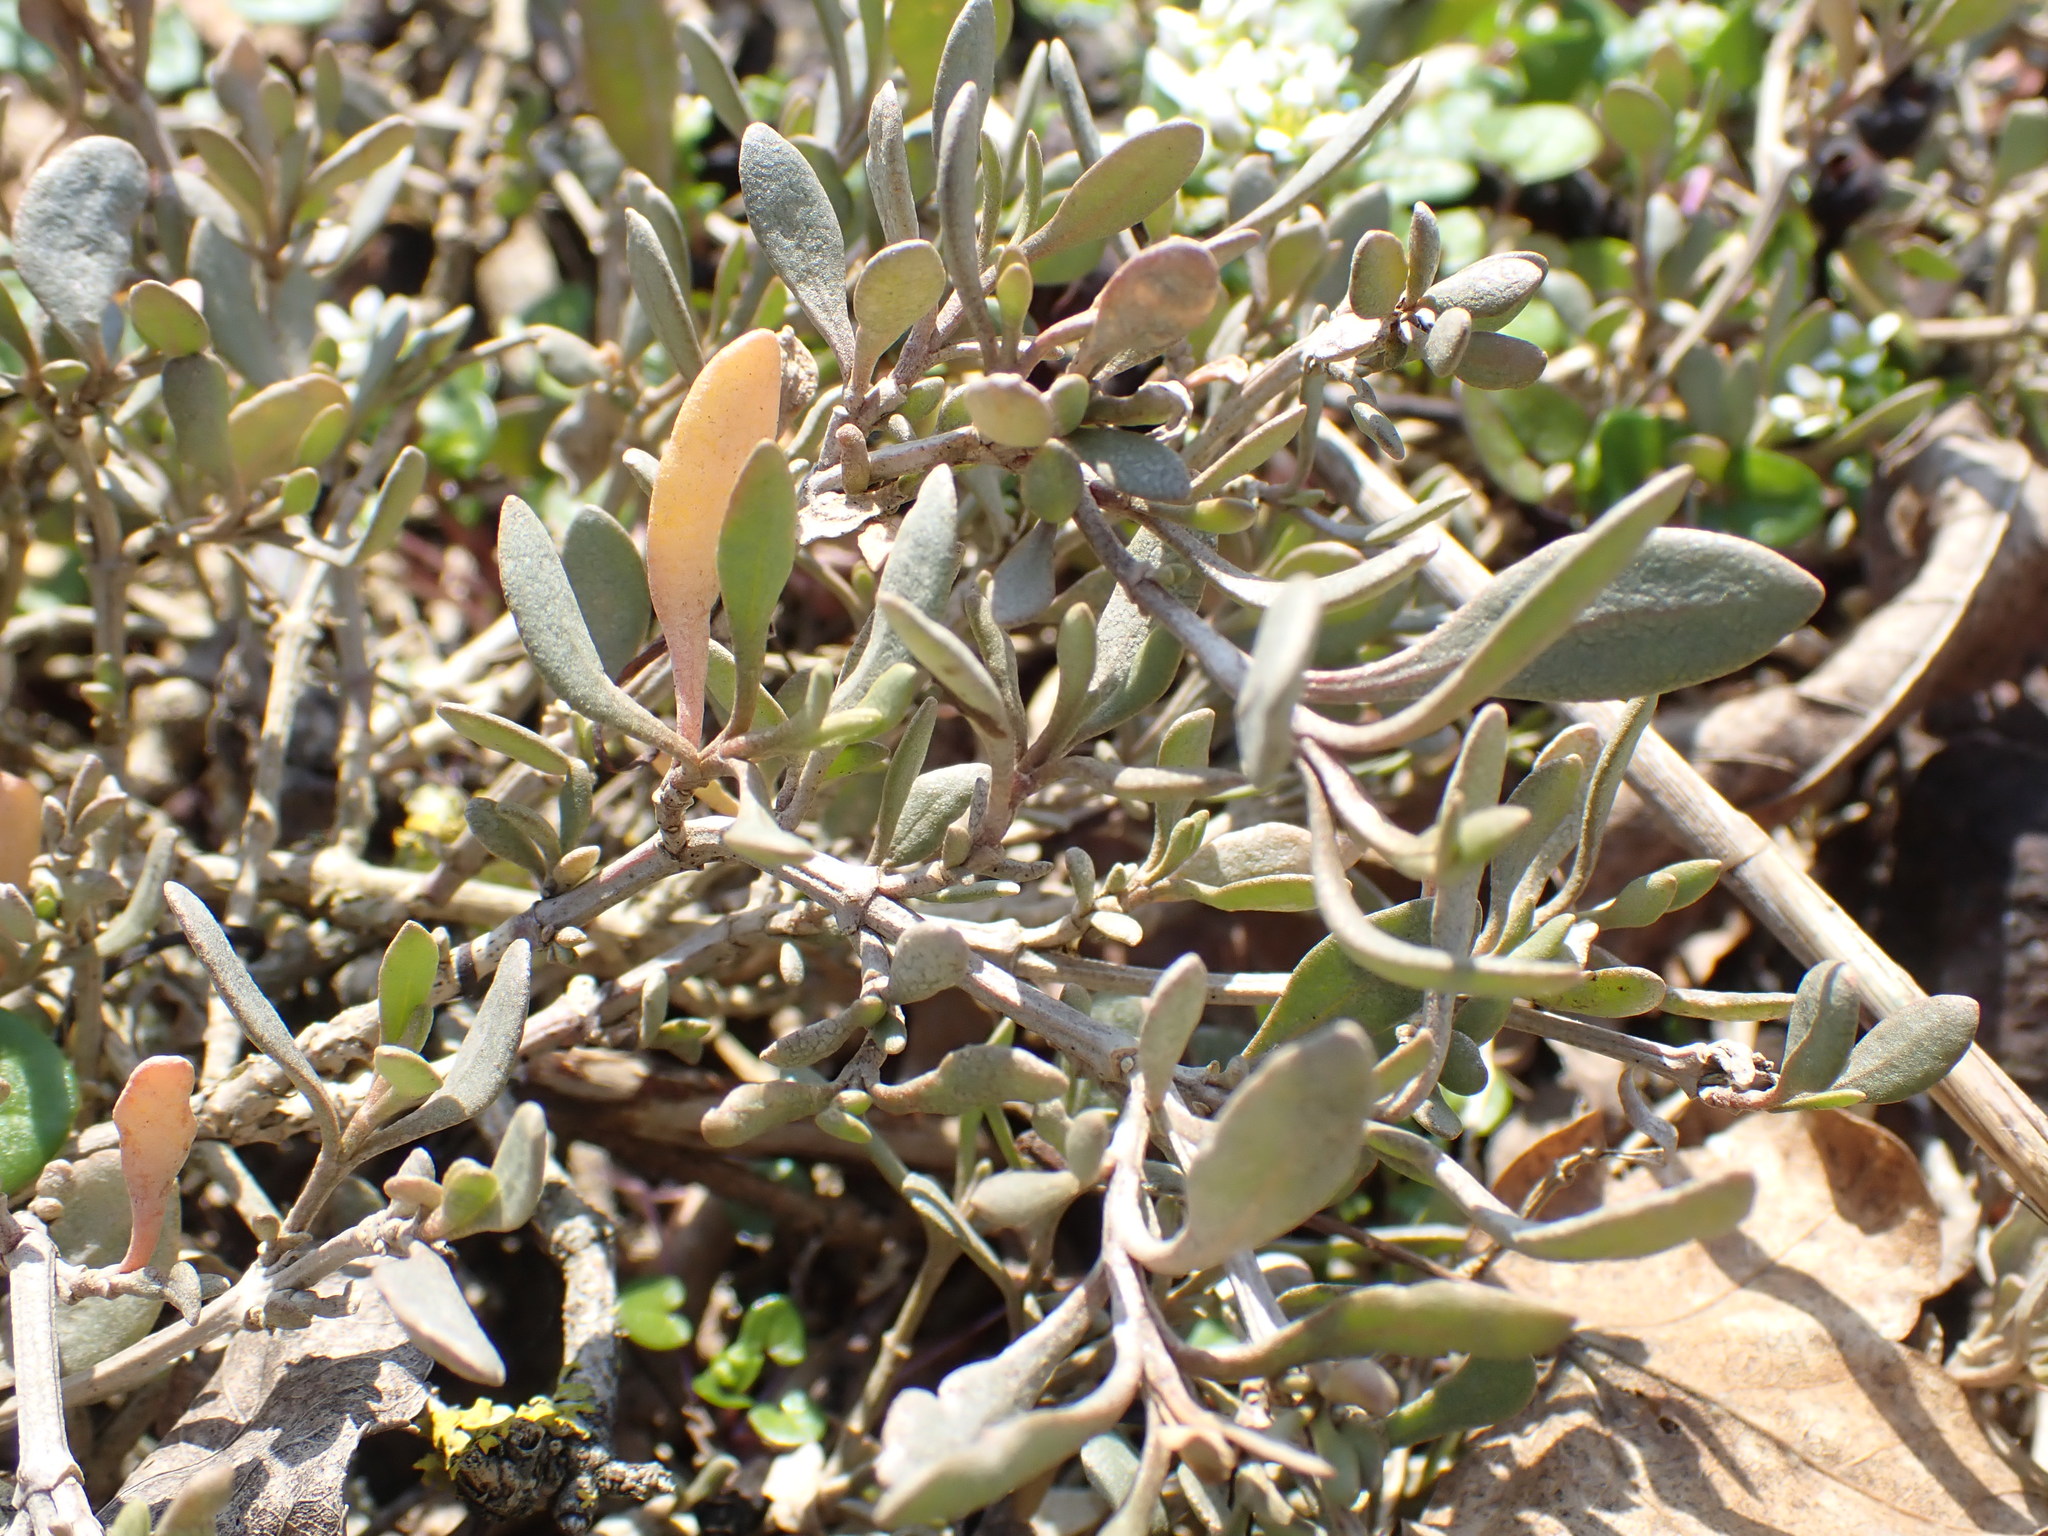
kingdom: Plantae
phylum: Tracheophyta
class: Magnoliopsida
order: Caryophyllales
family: Amaranthaceae
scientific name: Amaranthaceae
